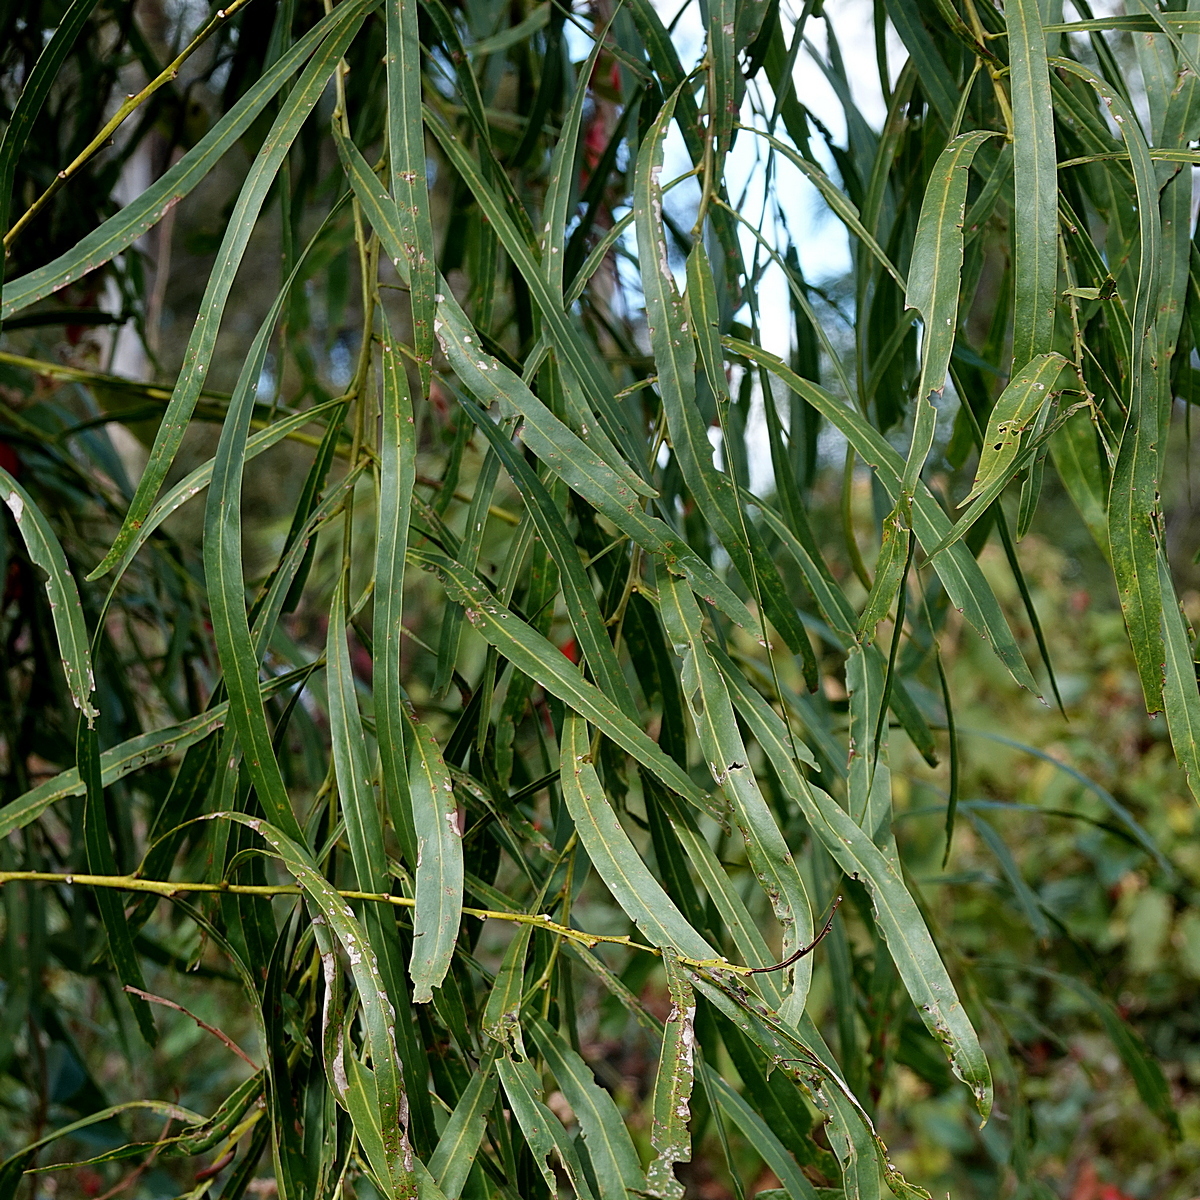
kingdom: Plantae
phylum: Tracheophyta
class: Magnoliopsida
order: Fabales
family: Fabaceae
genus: Acacia
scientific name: Acacia mabellae
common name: Black wattle
